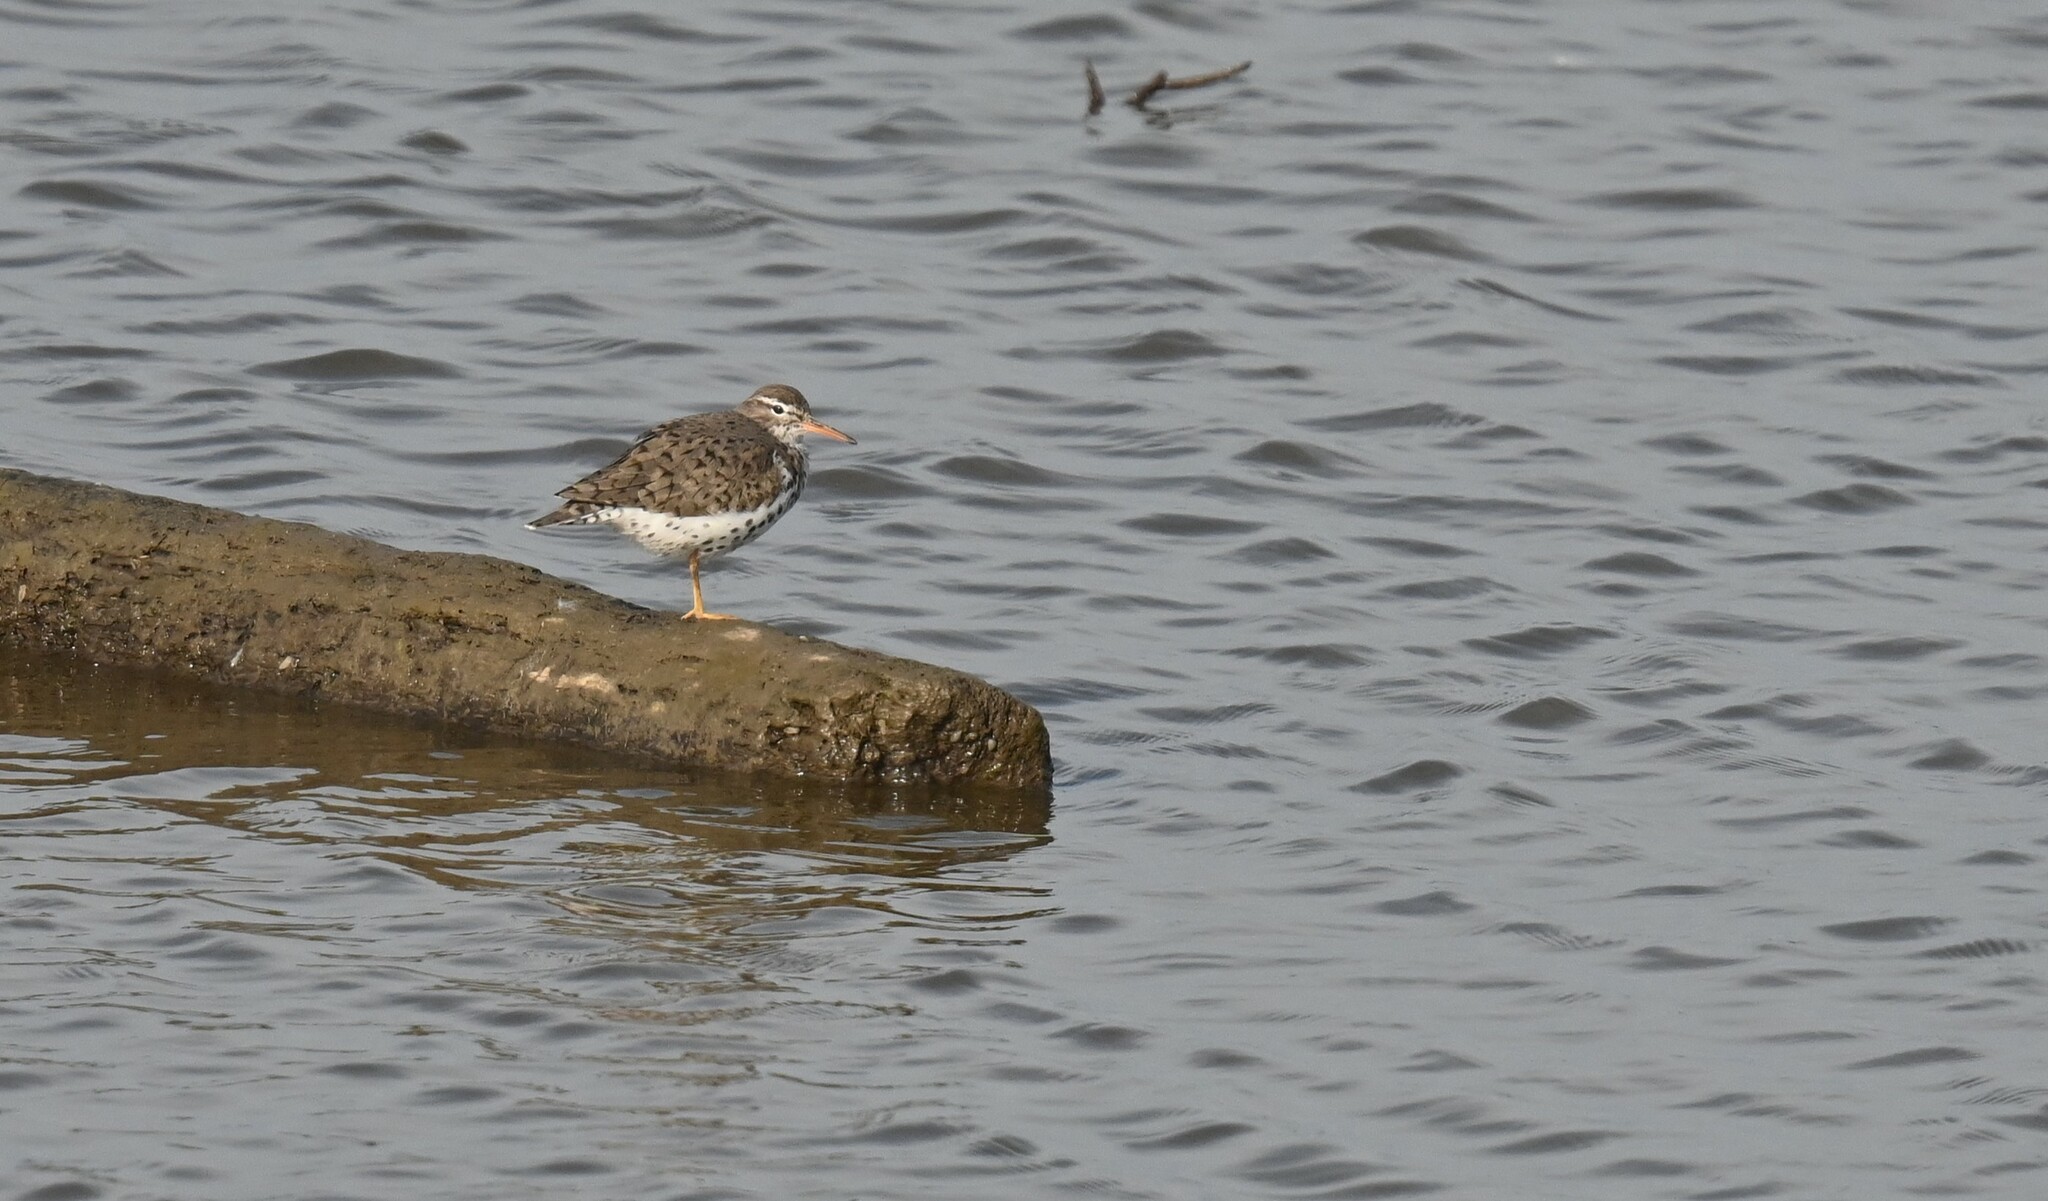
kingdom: Animalia
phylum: Chordata
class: Aves
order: Charadriiformes
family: Scolopacidae
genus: Actitis
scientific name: Actitis macularius
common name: Spotted sandpiper
